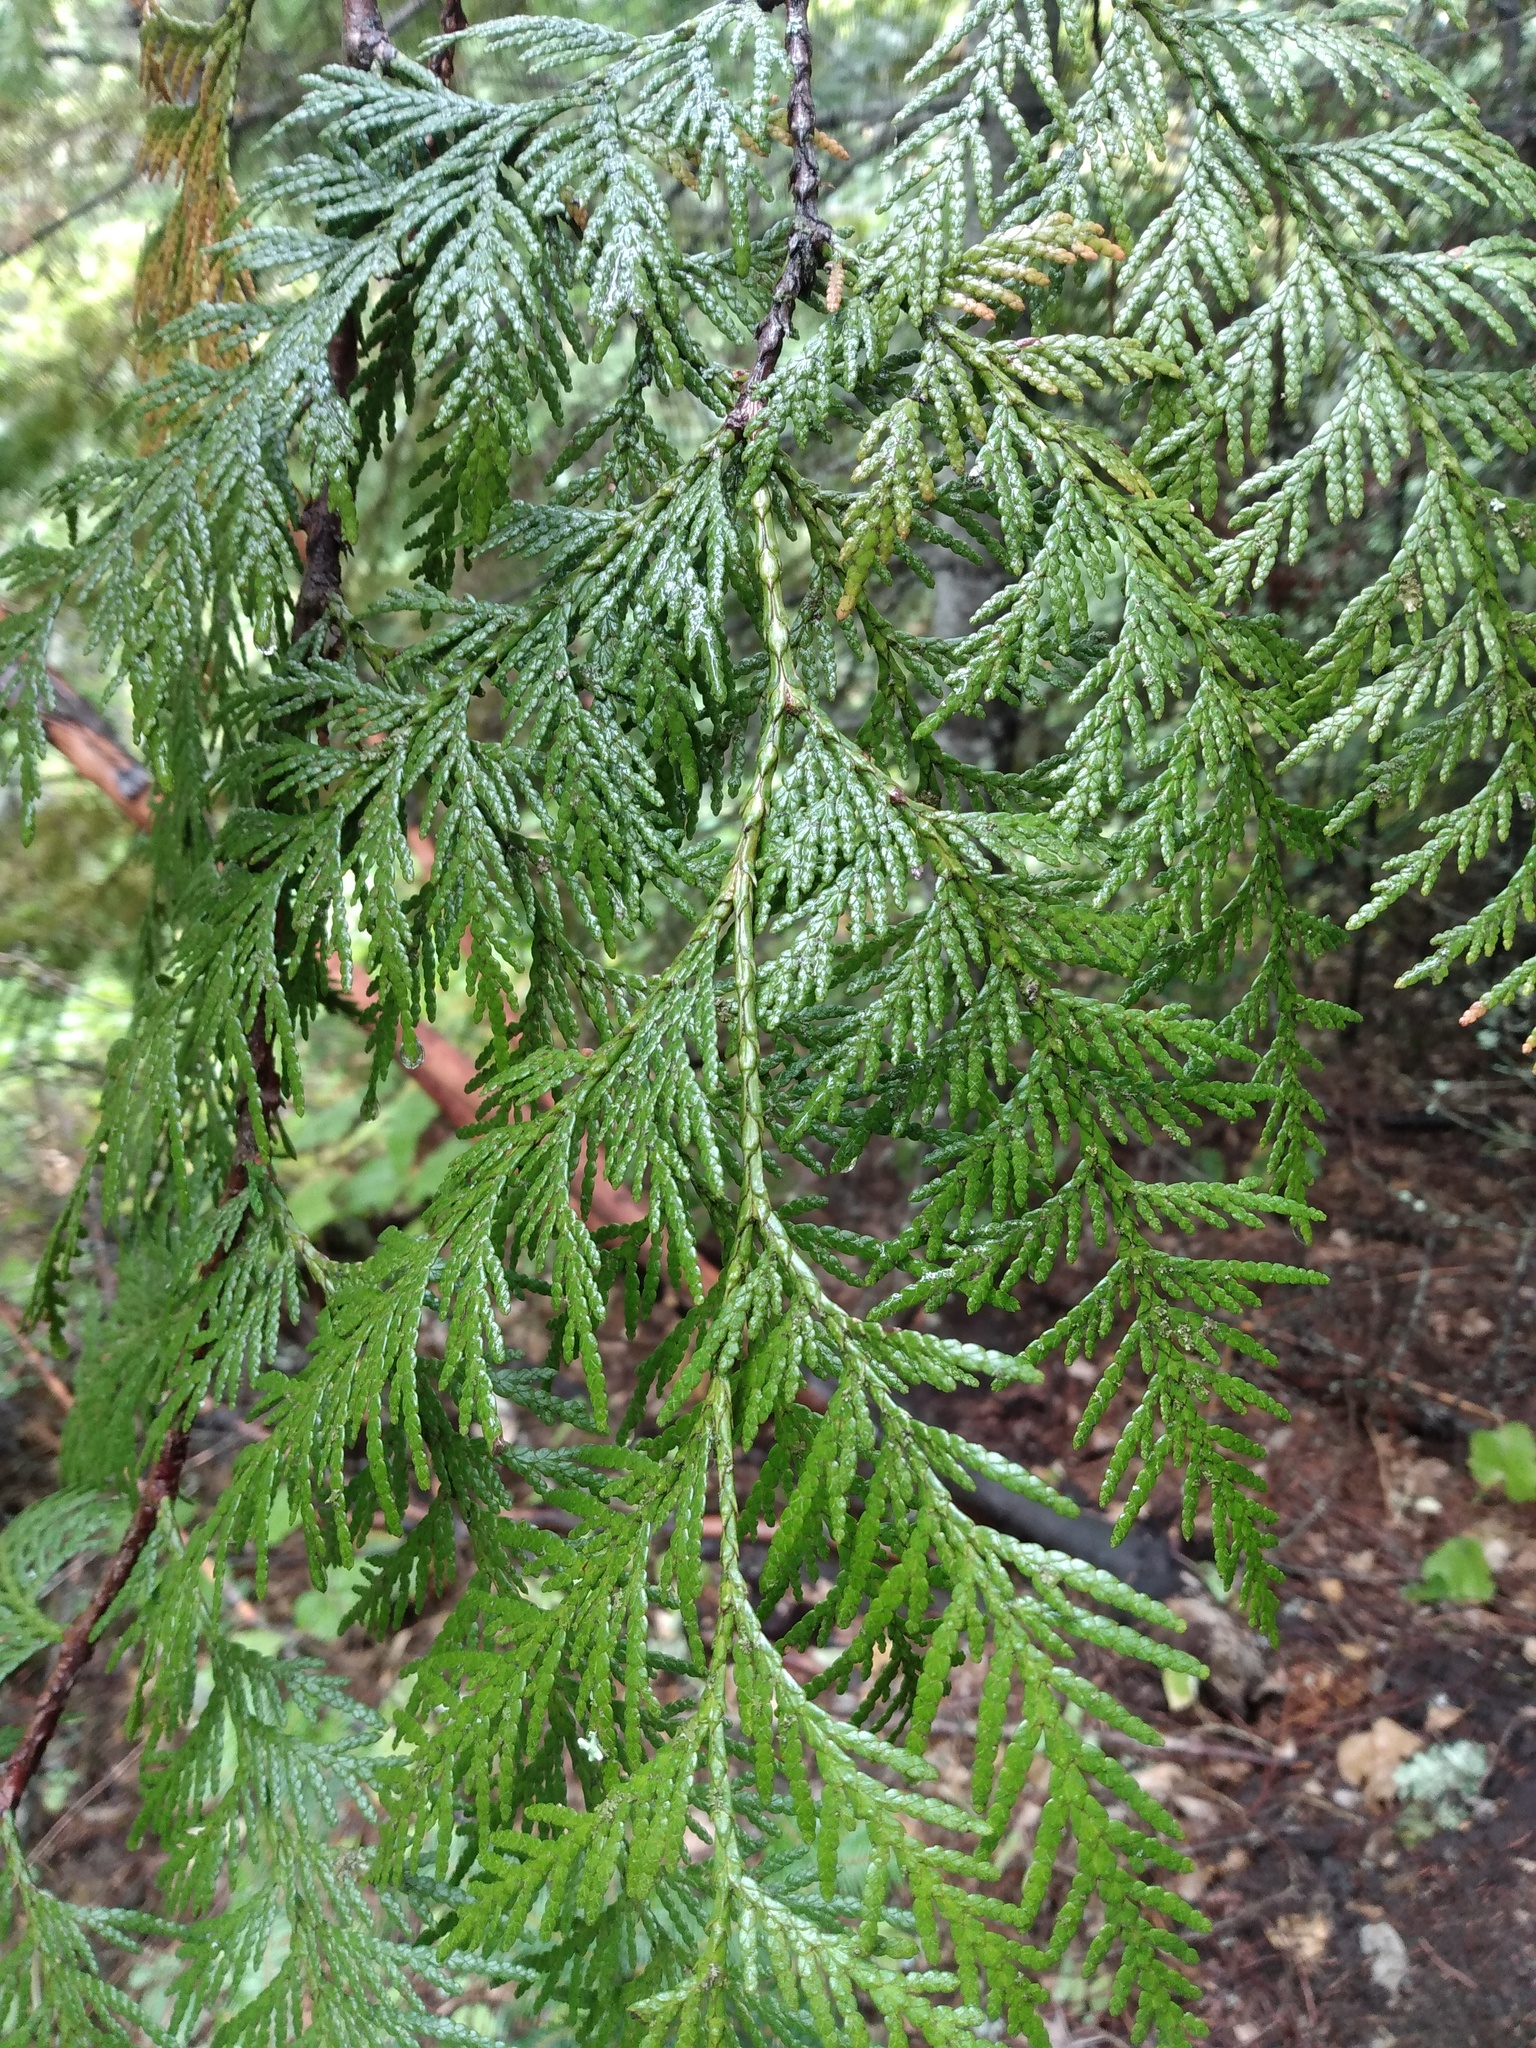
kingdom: Plantae
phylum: Tracheophyta
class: Pinopsida
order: Pinales
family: Cupressaceae
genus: Thuja
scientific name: Thuja plicata
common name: Western red-cedar
